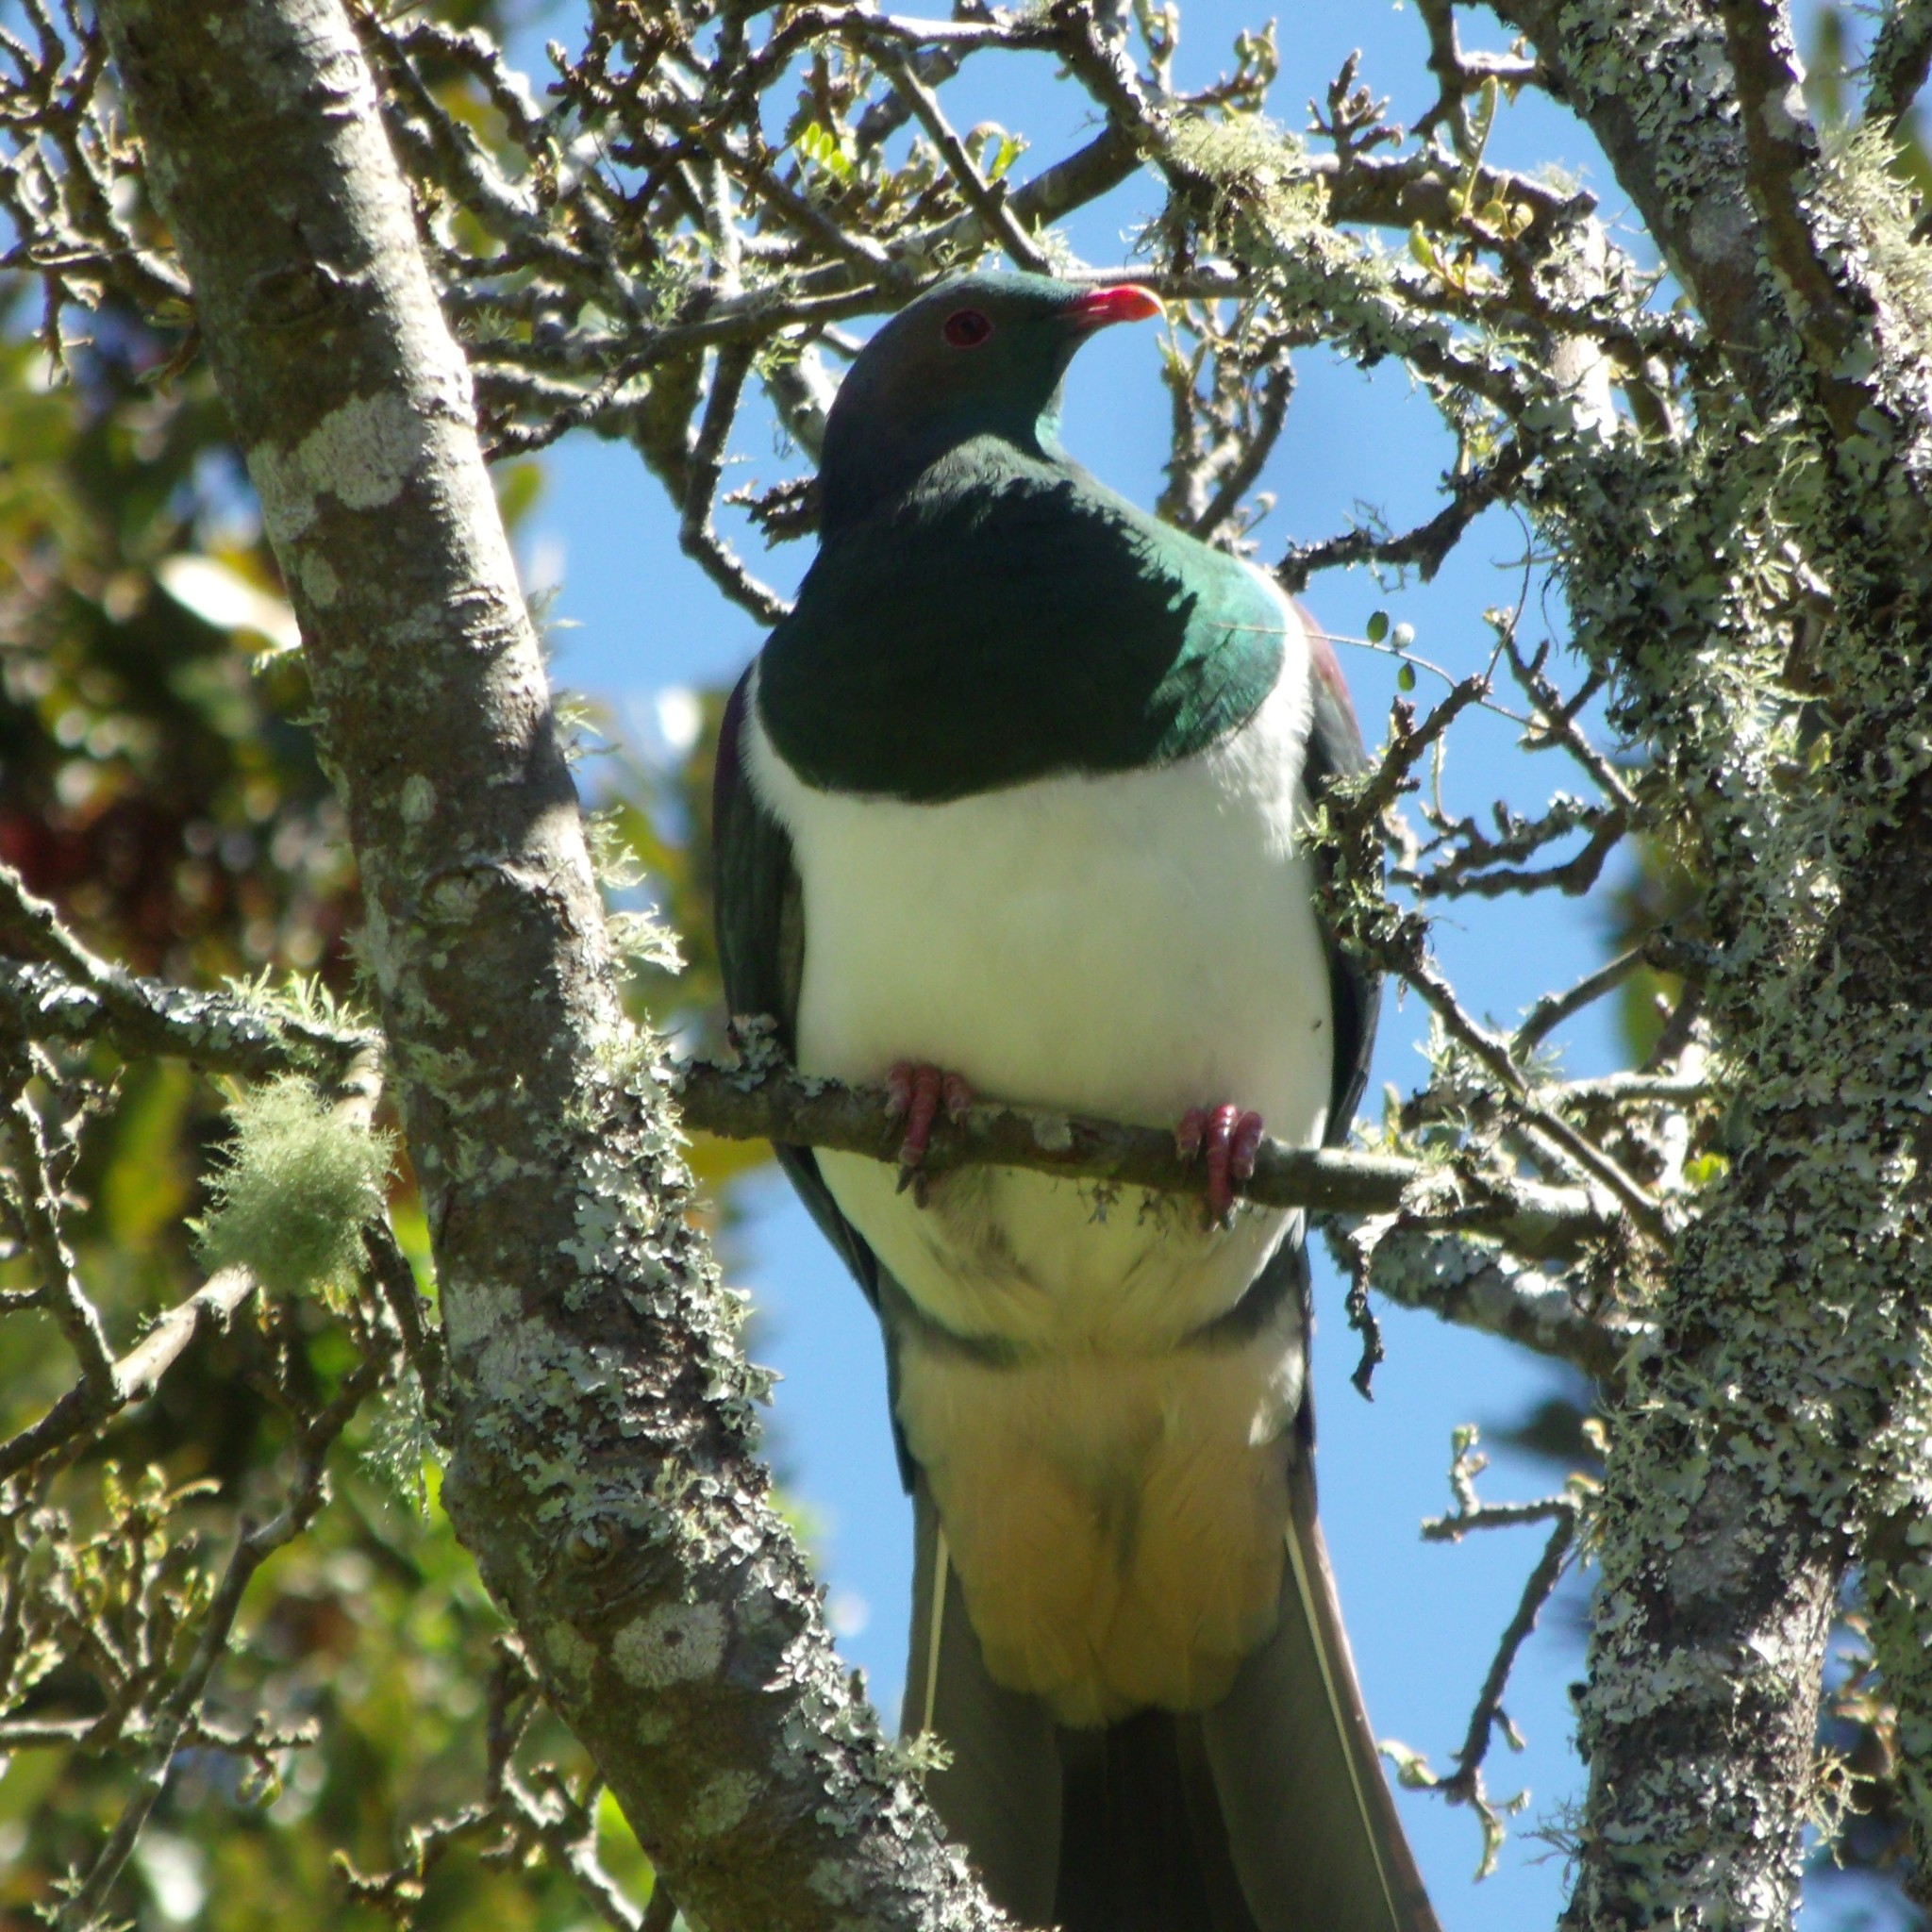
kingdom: Animalia
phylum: Chordata
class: Aves
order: Columbiformes
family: Columbidae
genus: Hemiphaga
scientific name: Hemiphaga novaeseelandiae
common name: New zealand pigeon
